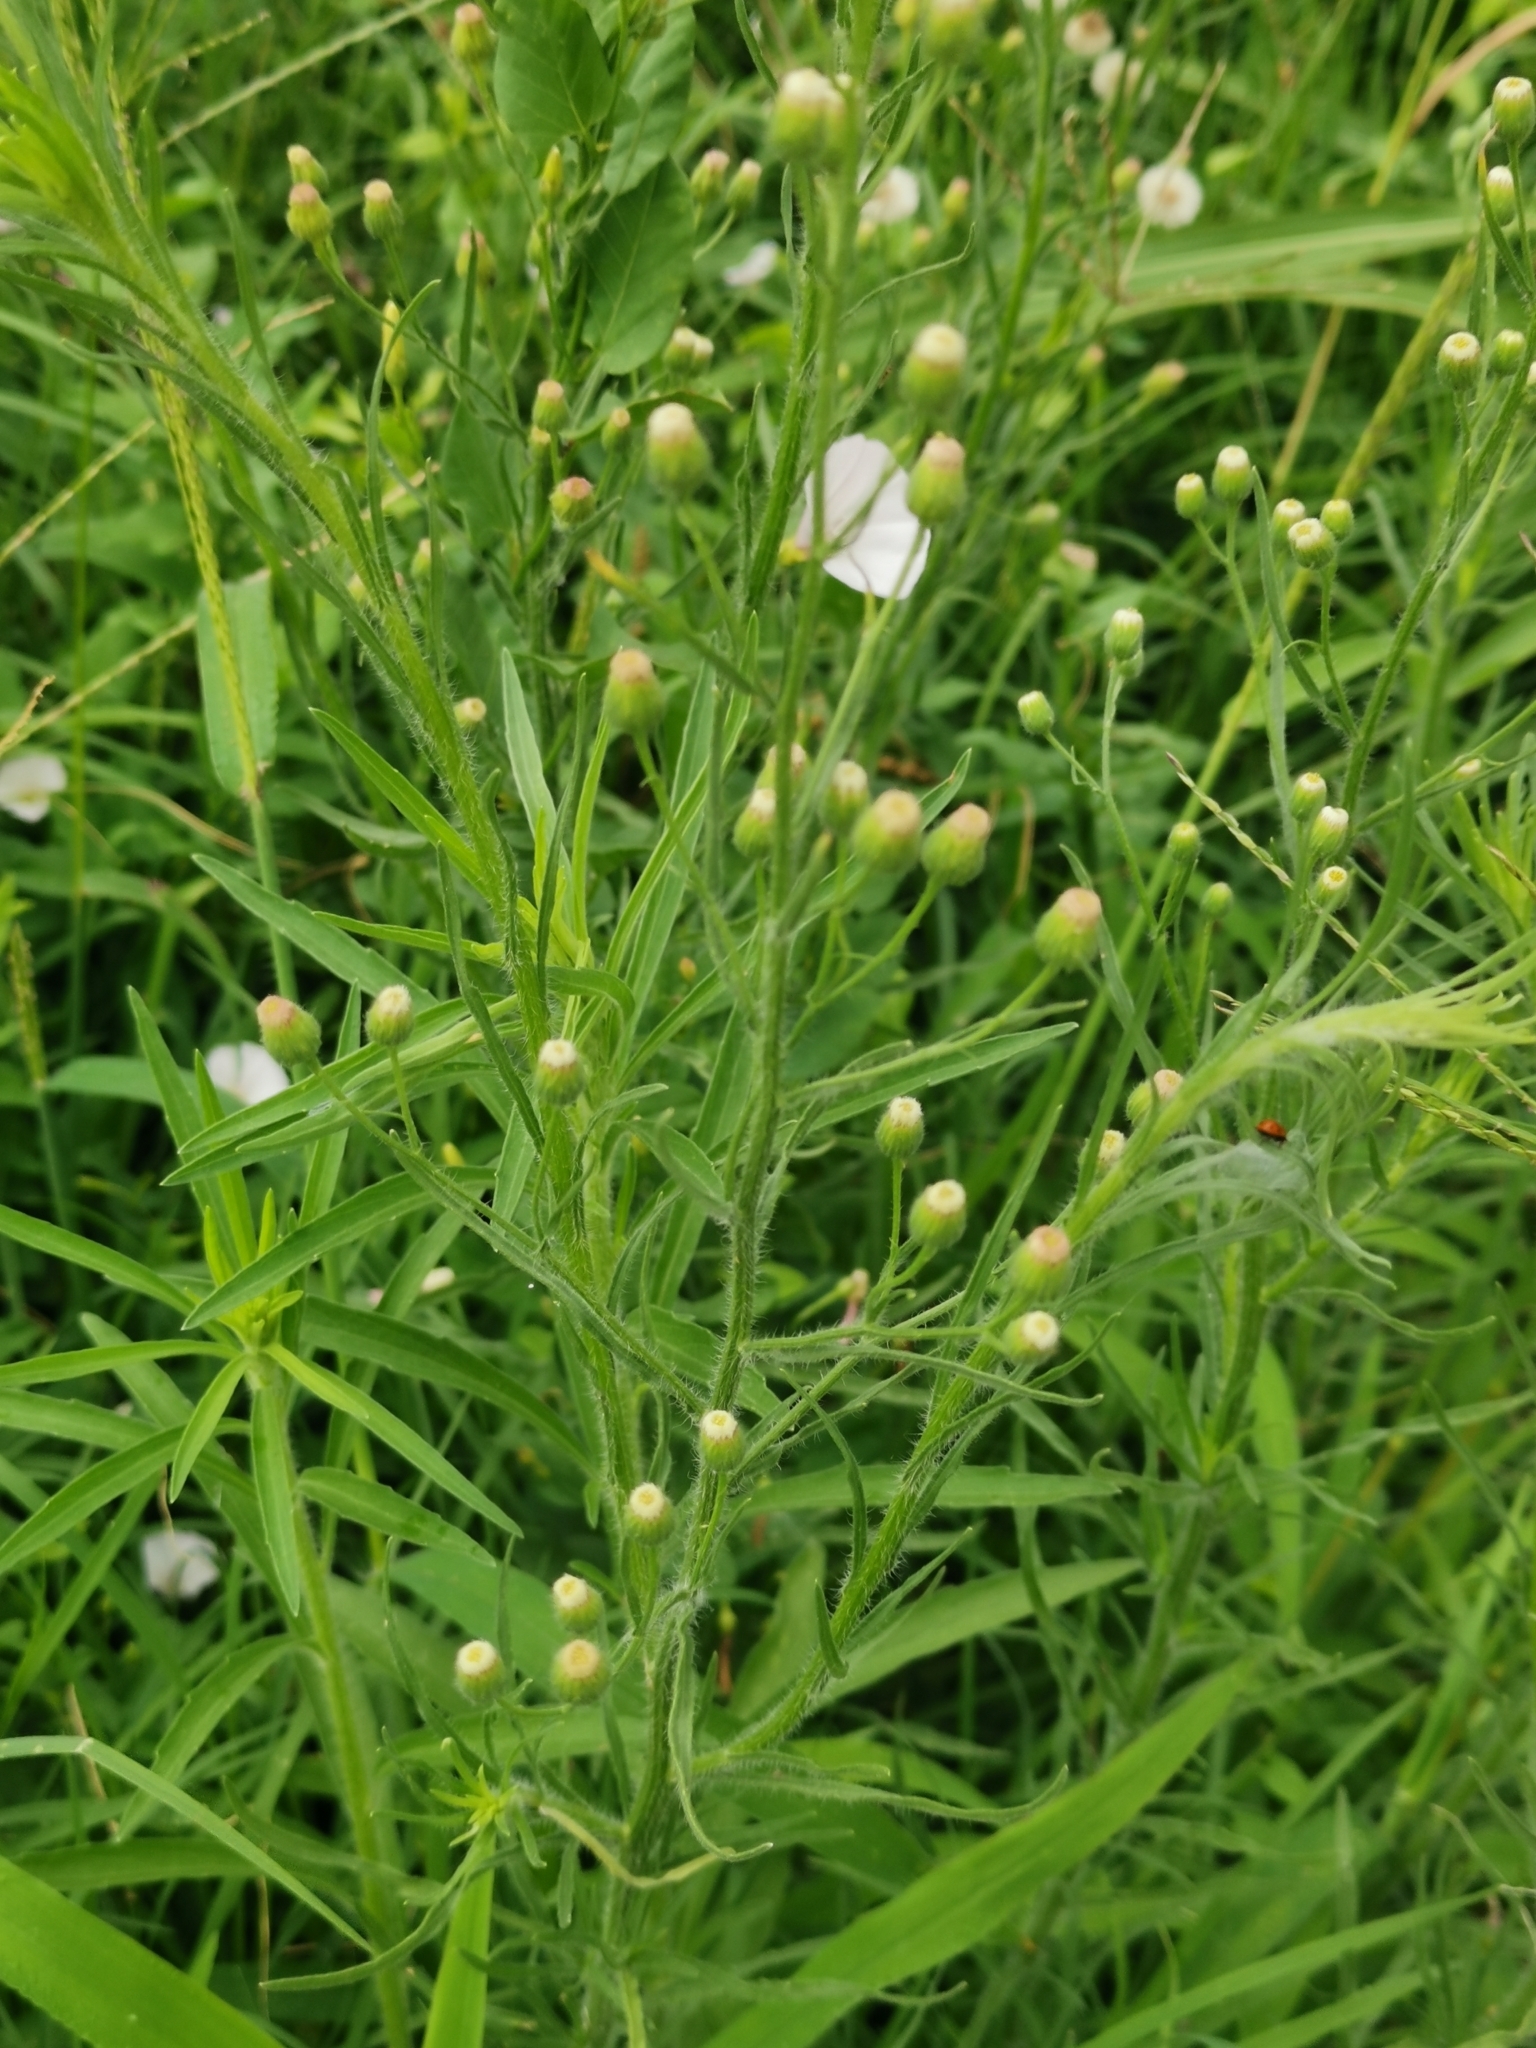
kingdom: Plantae
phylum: Tracheophyta
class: Magnoliopsida
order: Asterales
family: Asteraceae
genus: Erigeron
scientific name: Erigeron bonariensis
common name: Argentine fleabane
